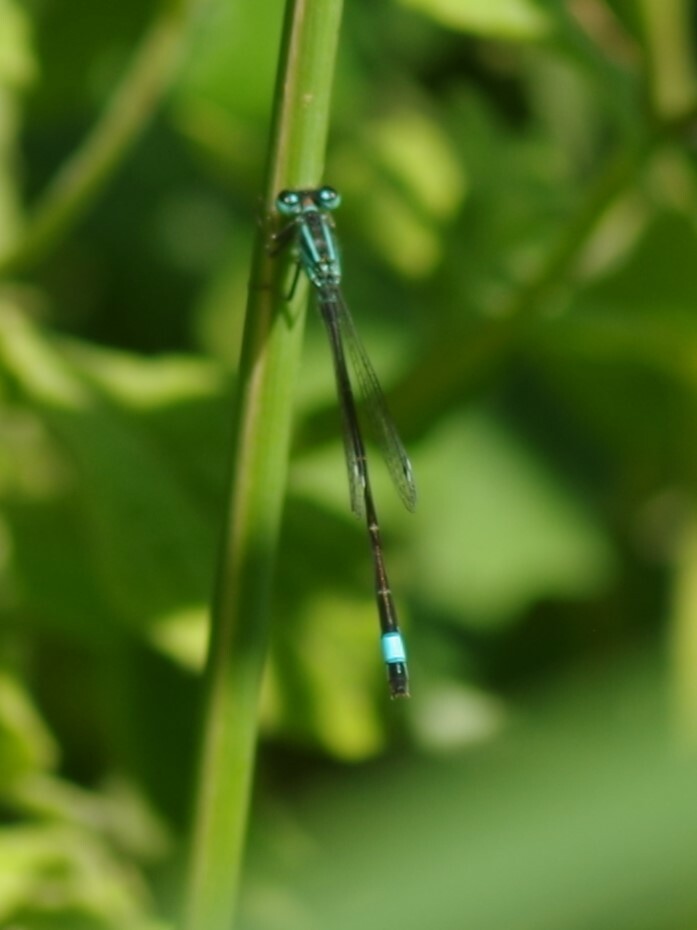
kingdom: Animalia
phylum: Arthropoda
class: Insecta
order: Odonata
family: Coenagrionidae
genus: Ischnura
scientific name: Ischnura elegans
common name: Blue-tailed damselfly
